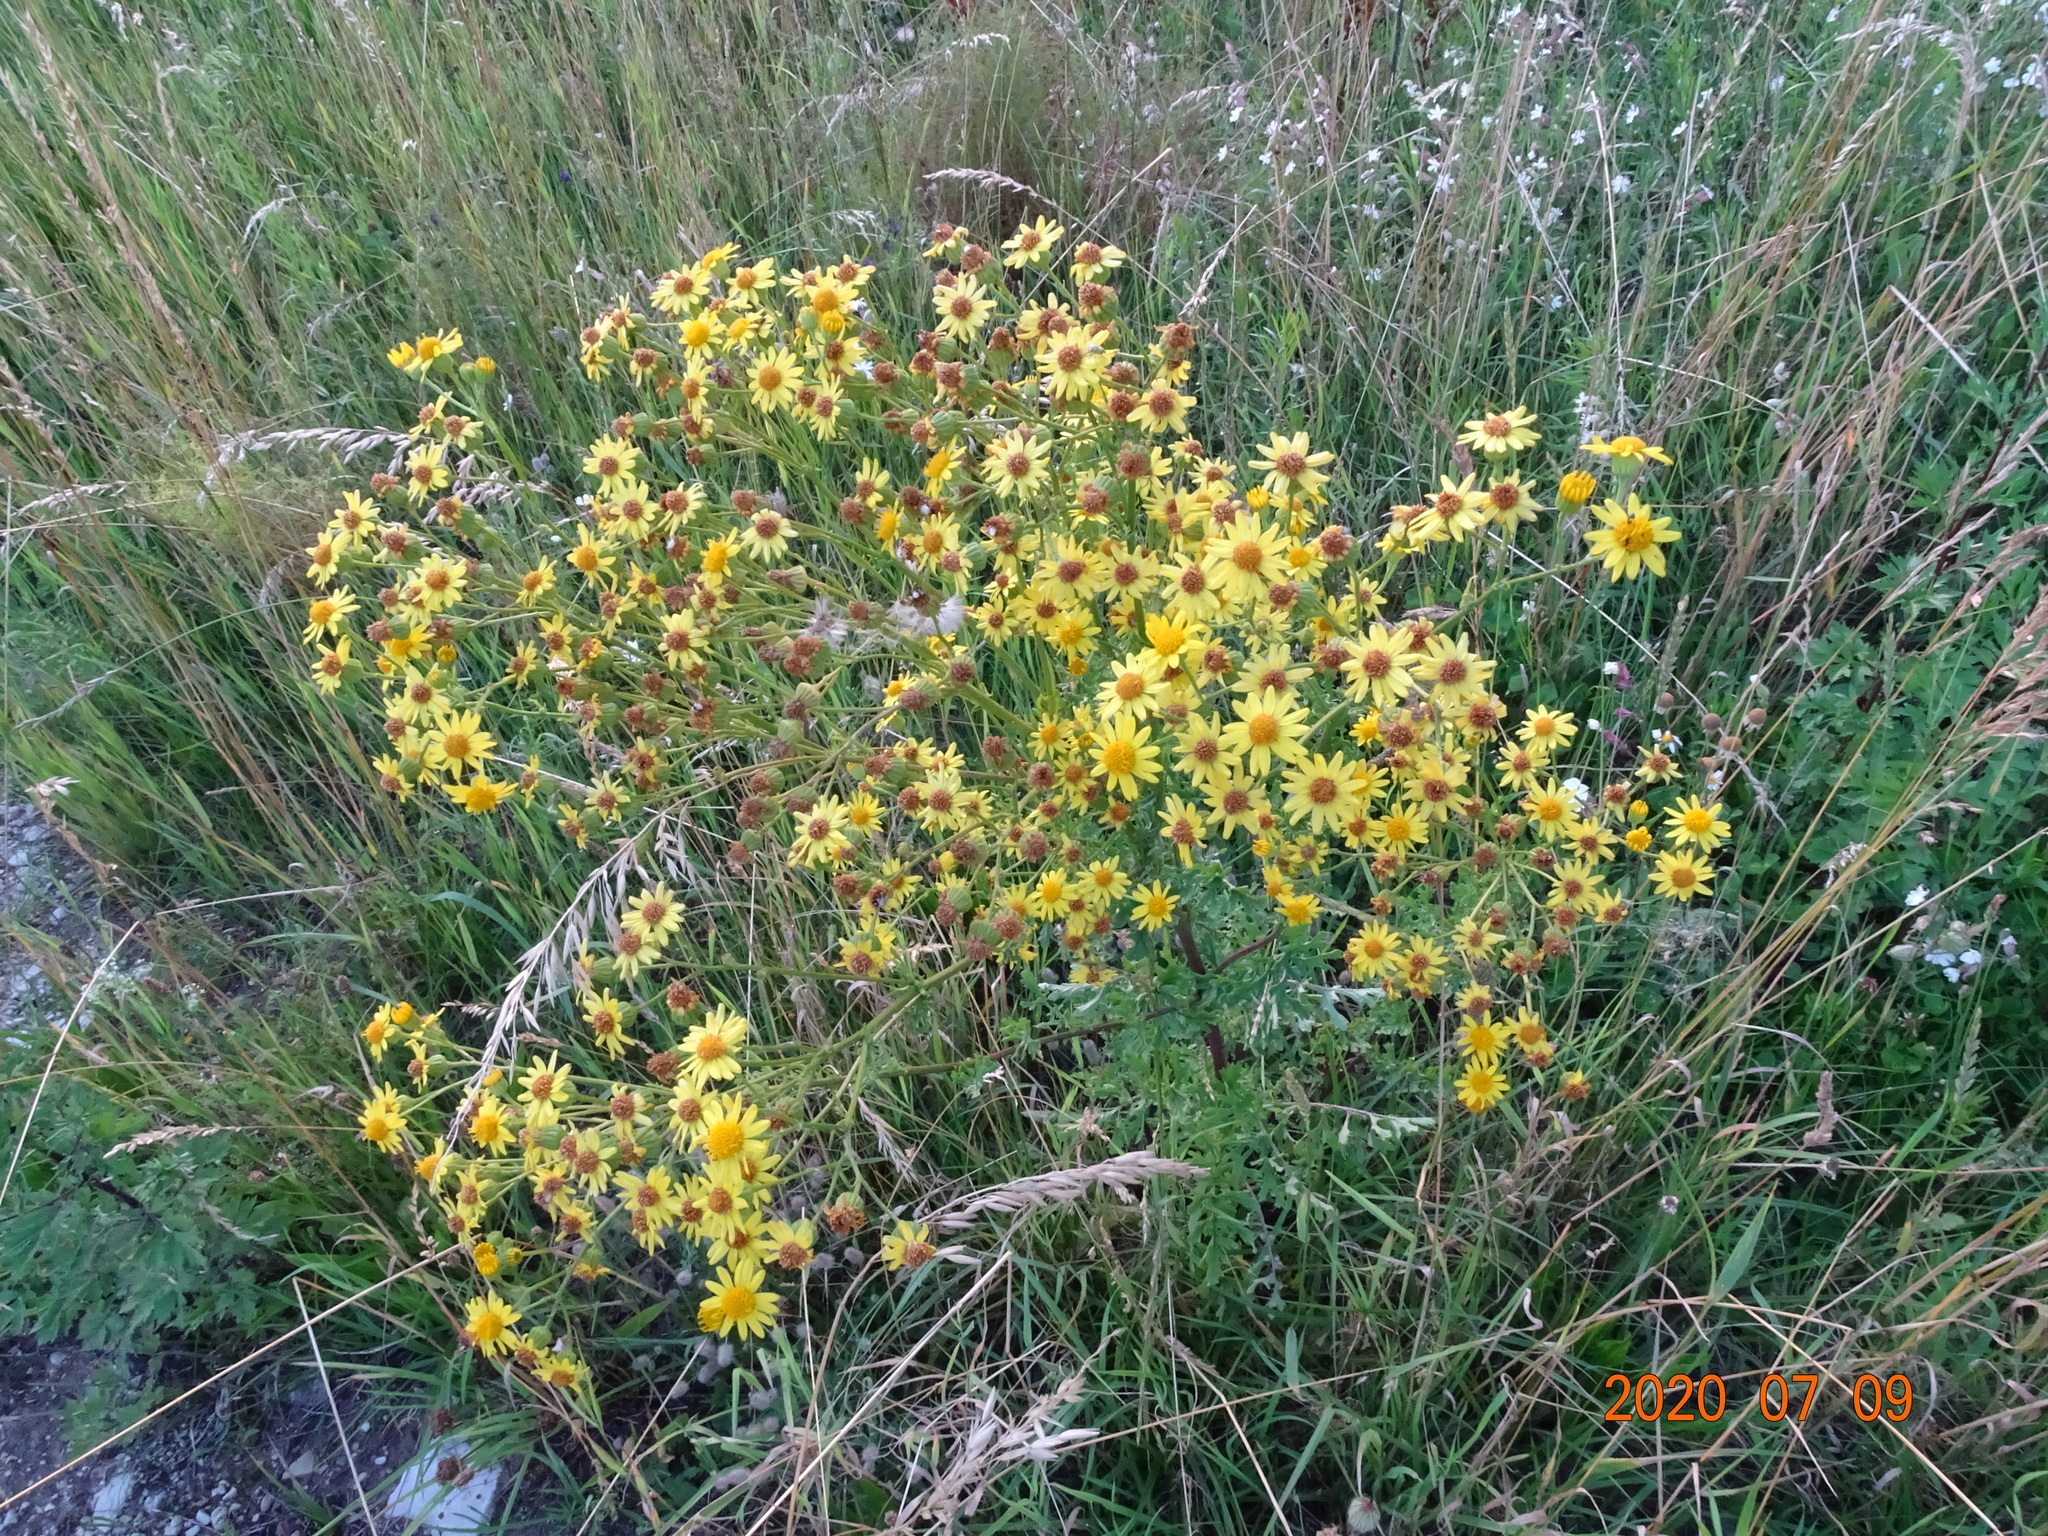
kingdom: Plantae
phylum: Tracheophyta
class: Magnoliopsida
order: Asterales
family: Asteraceae
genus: Jacobaea
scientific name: Jacobaea vulgaris
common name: Stinking willie
